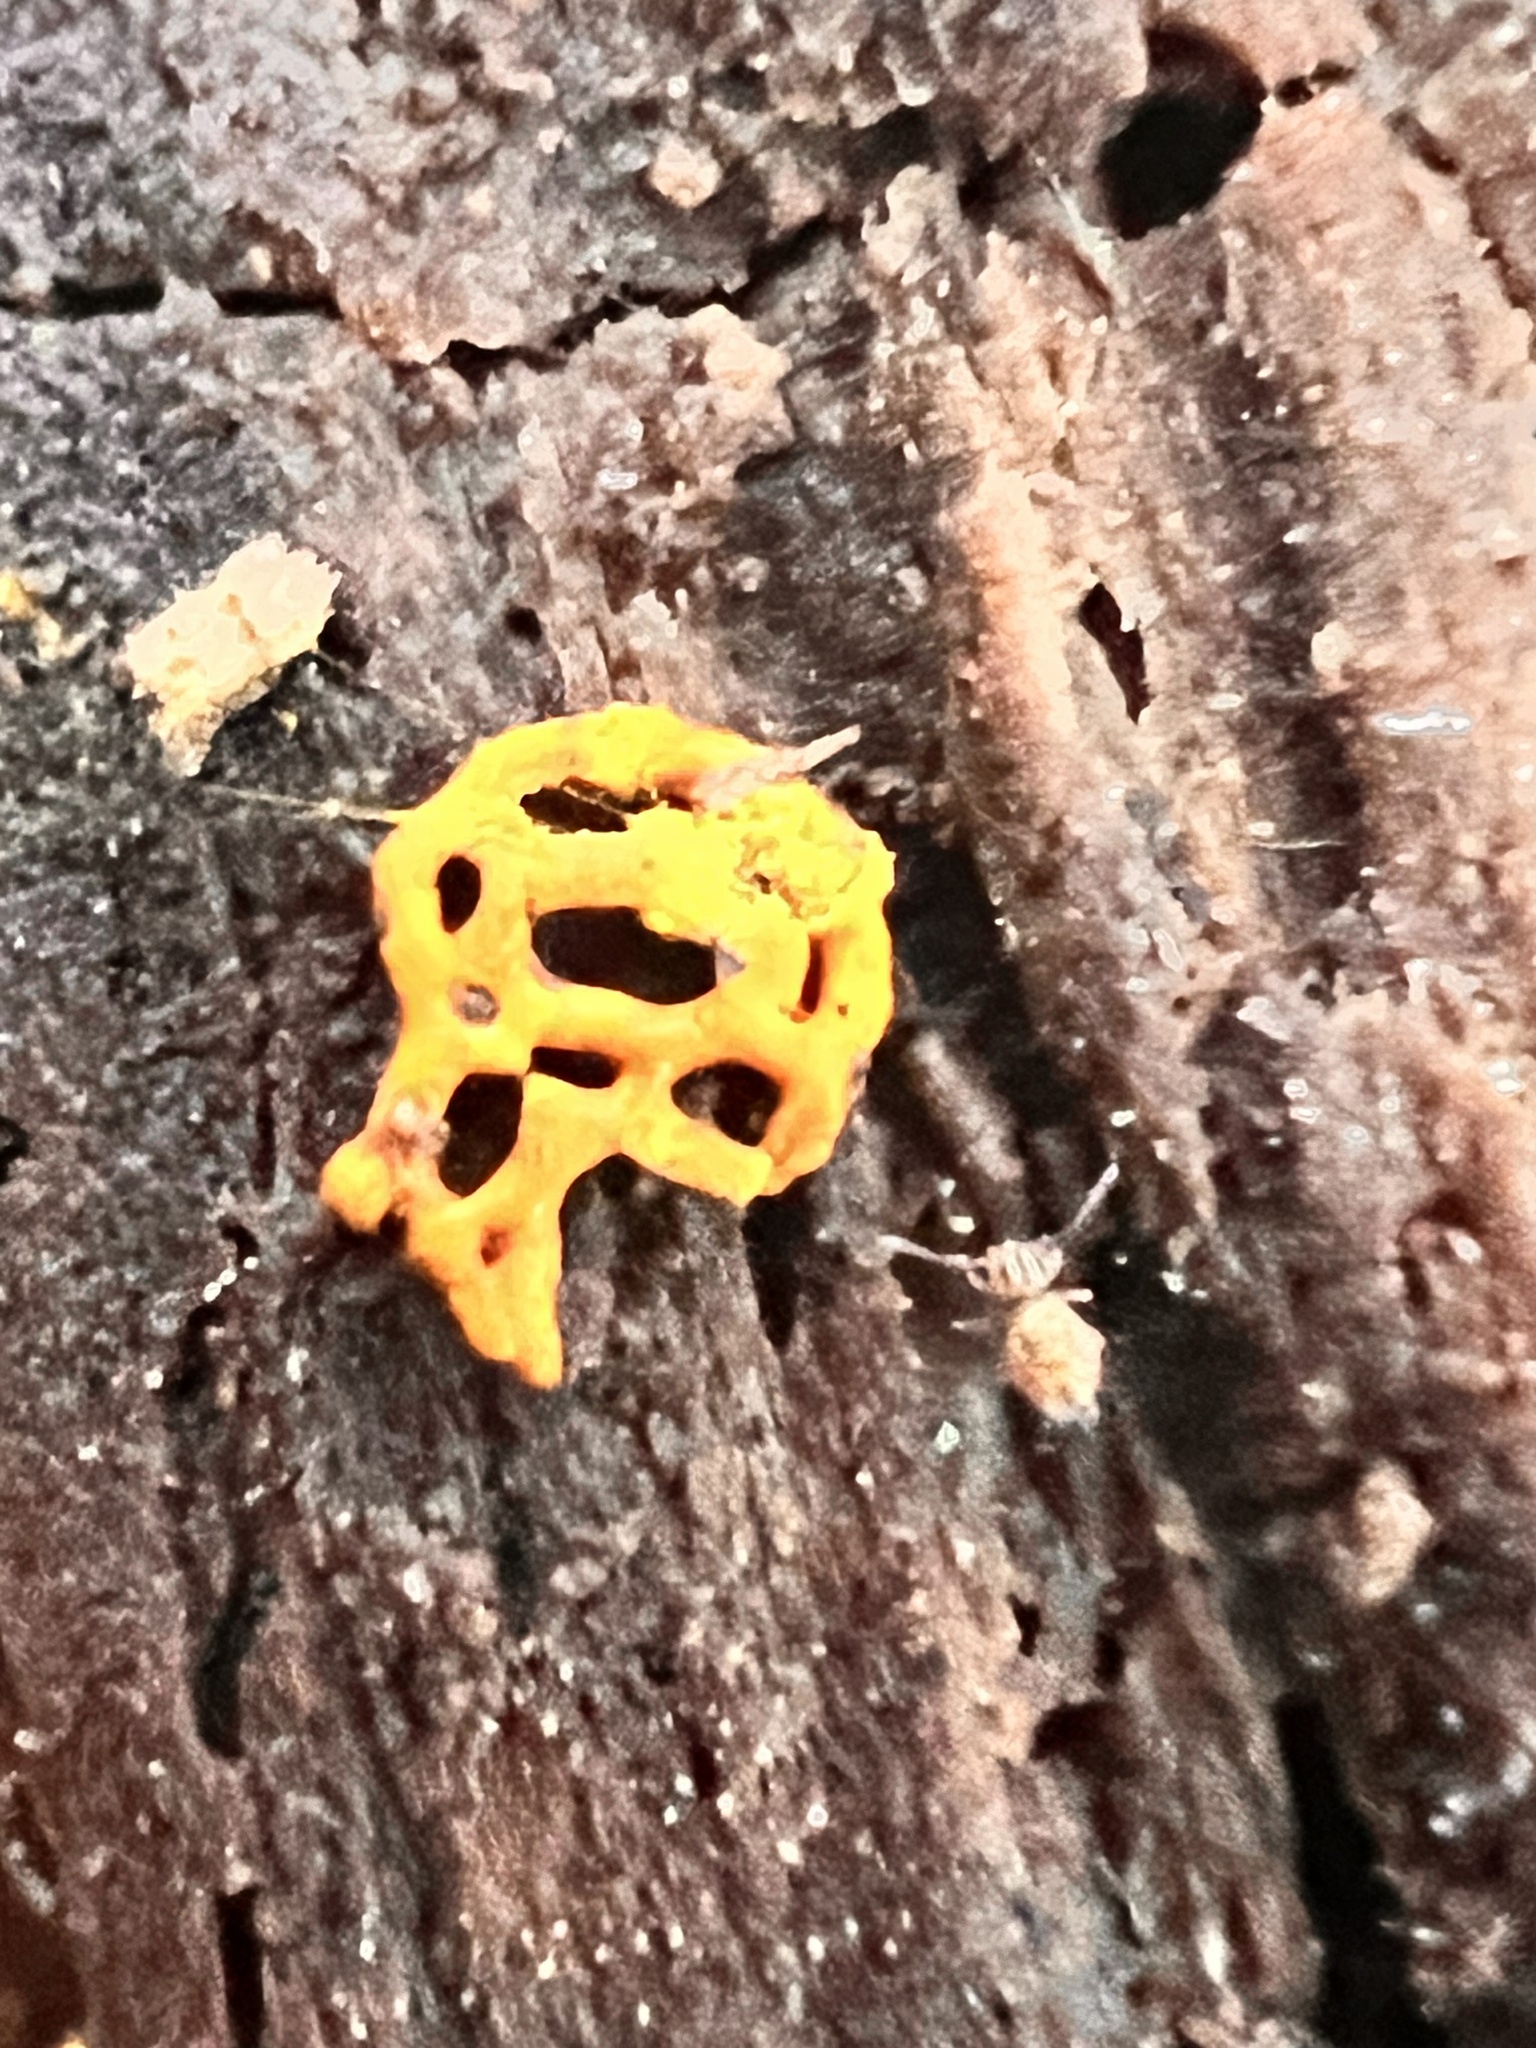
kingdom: Protozoa
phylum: Mycetozoa
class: Myxomycetes
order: Trichiales
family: Arcyriaceae
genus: Hemitrichia
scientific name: Hemitrichia serpula
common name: Pretzel slime mold
